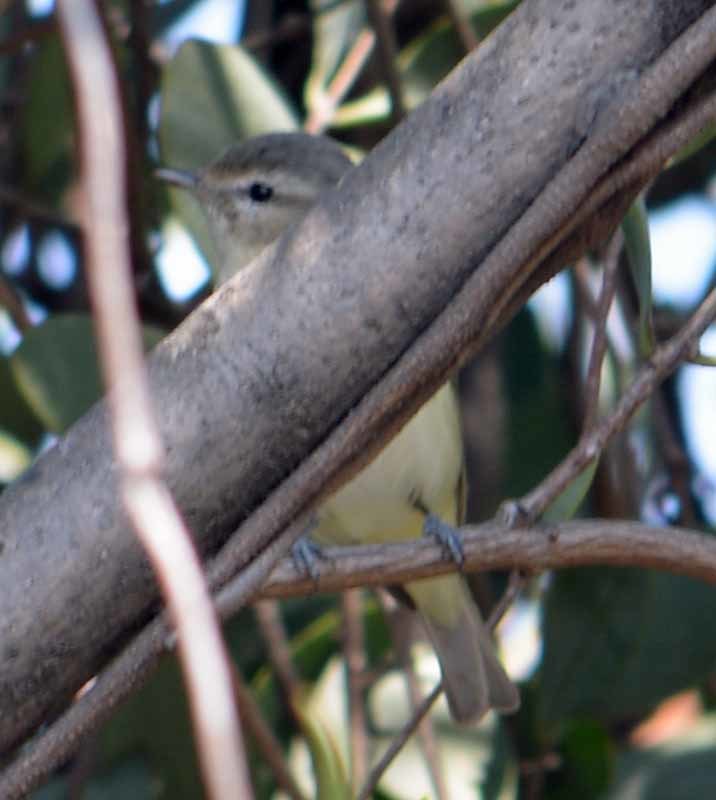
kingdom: Animalia
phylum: Chordata
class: Aves
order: Passeriformes
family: Vireonidae
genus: Vireo
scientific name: Vireo gilvus
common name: Warbling vireo
